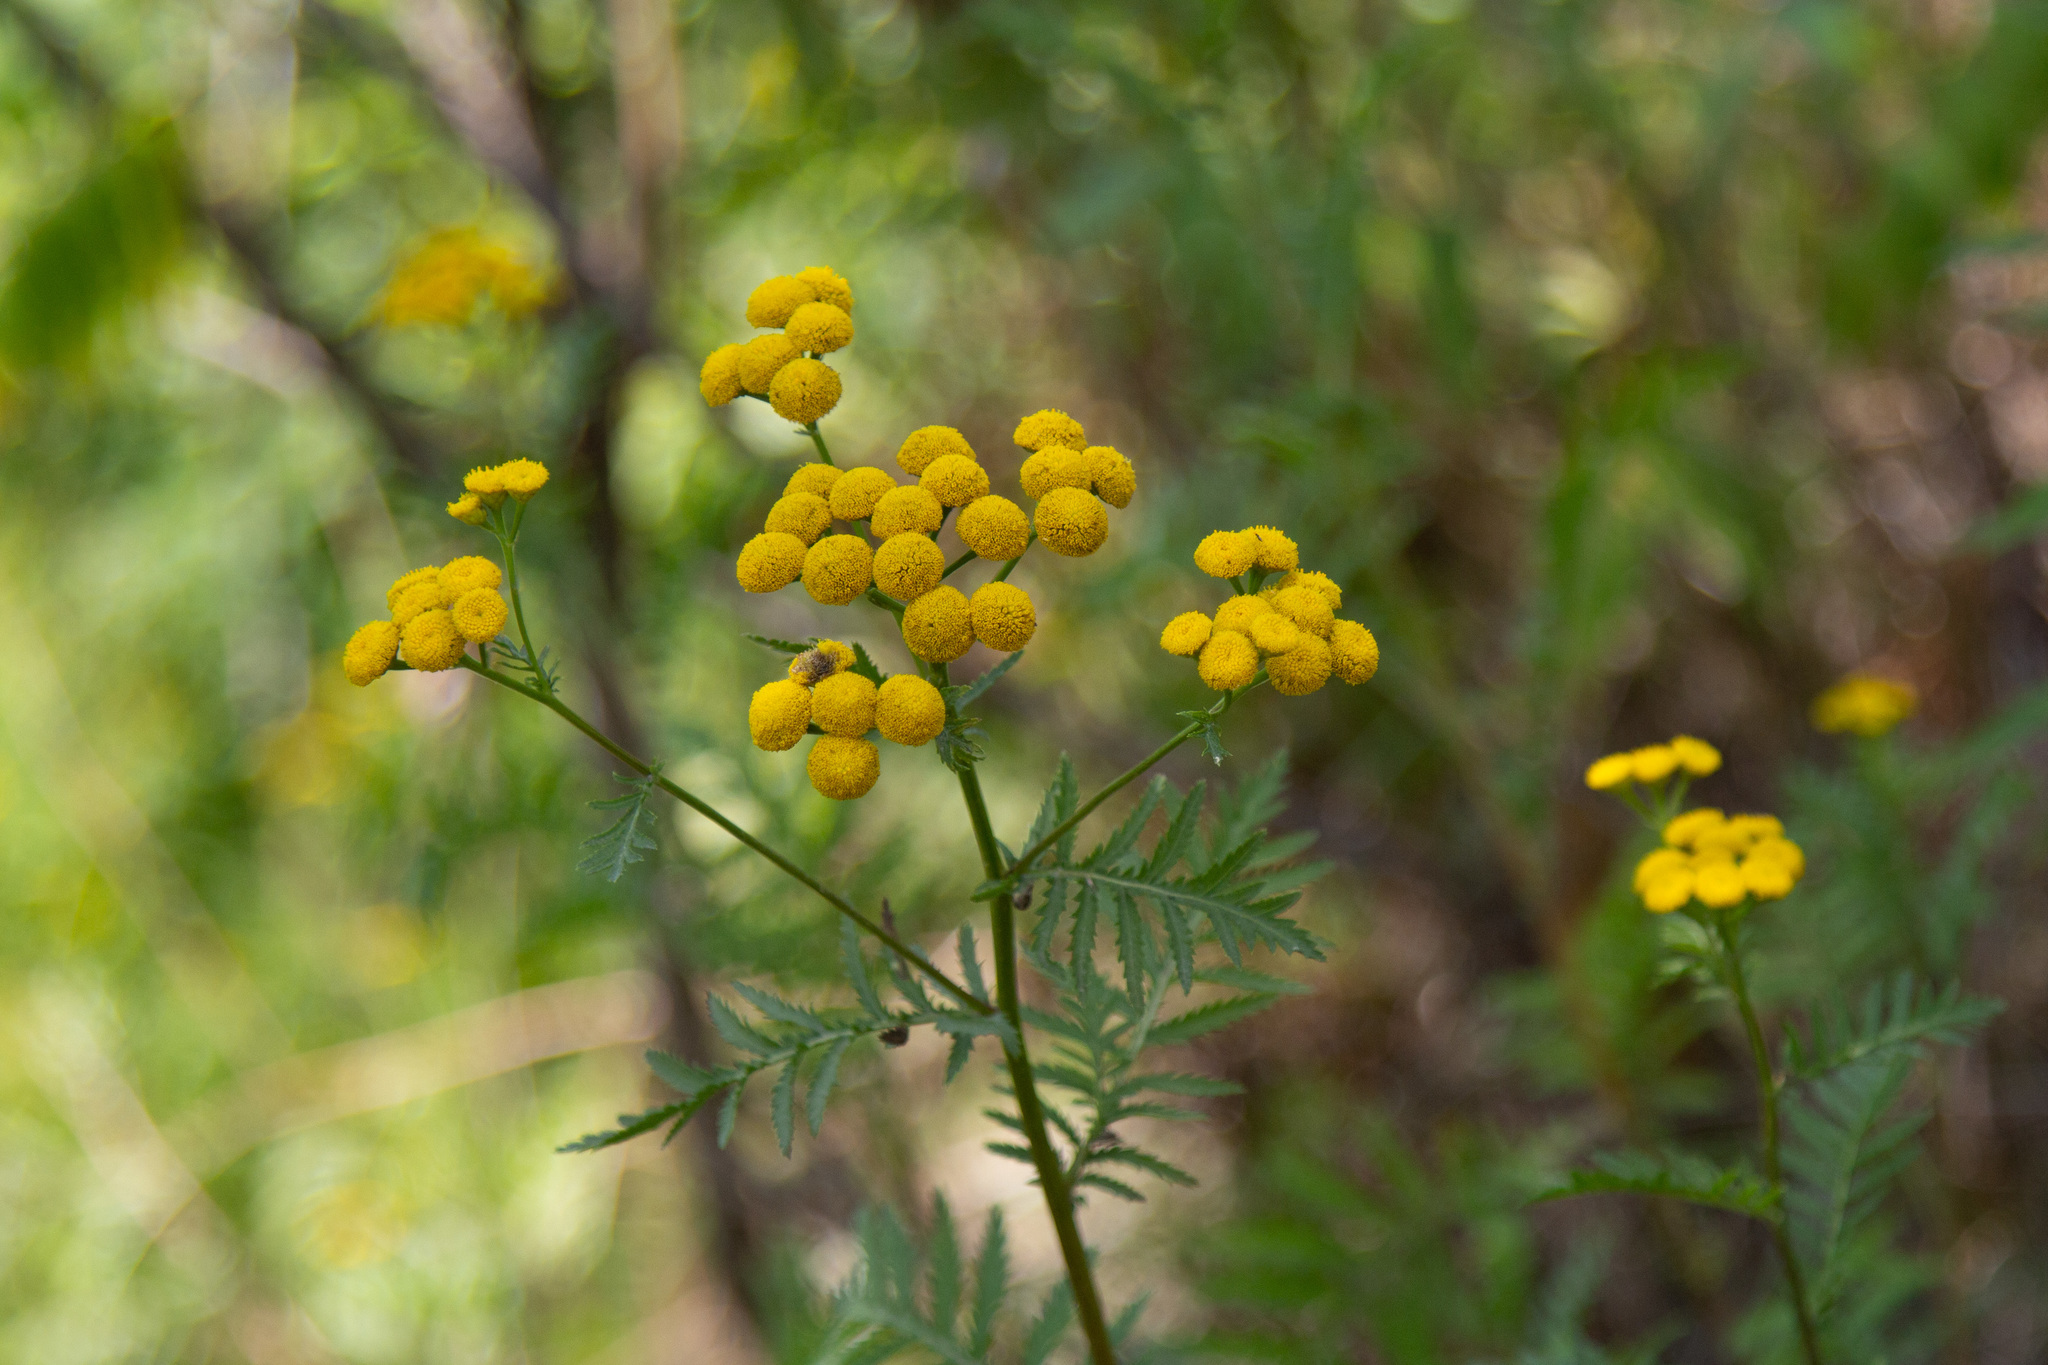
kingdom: Plantae
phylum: Tracheophyta
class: Magnoliopsida
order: Asterales
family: Asteraceae
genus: Tanacetum
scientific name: Tanacetum vulgare
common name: Common tansy
